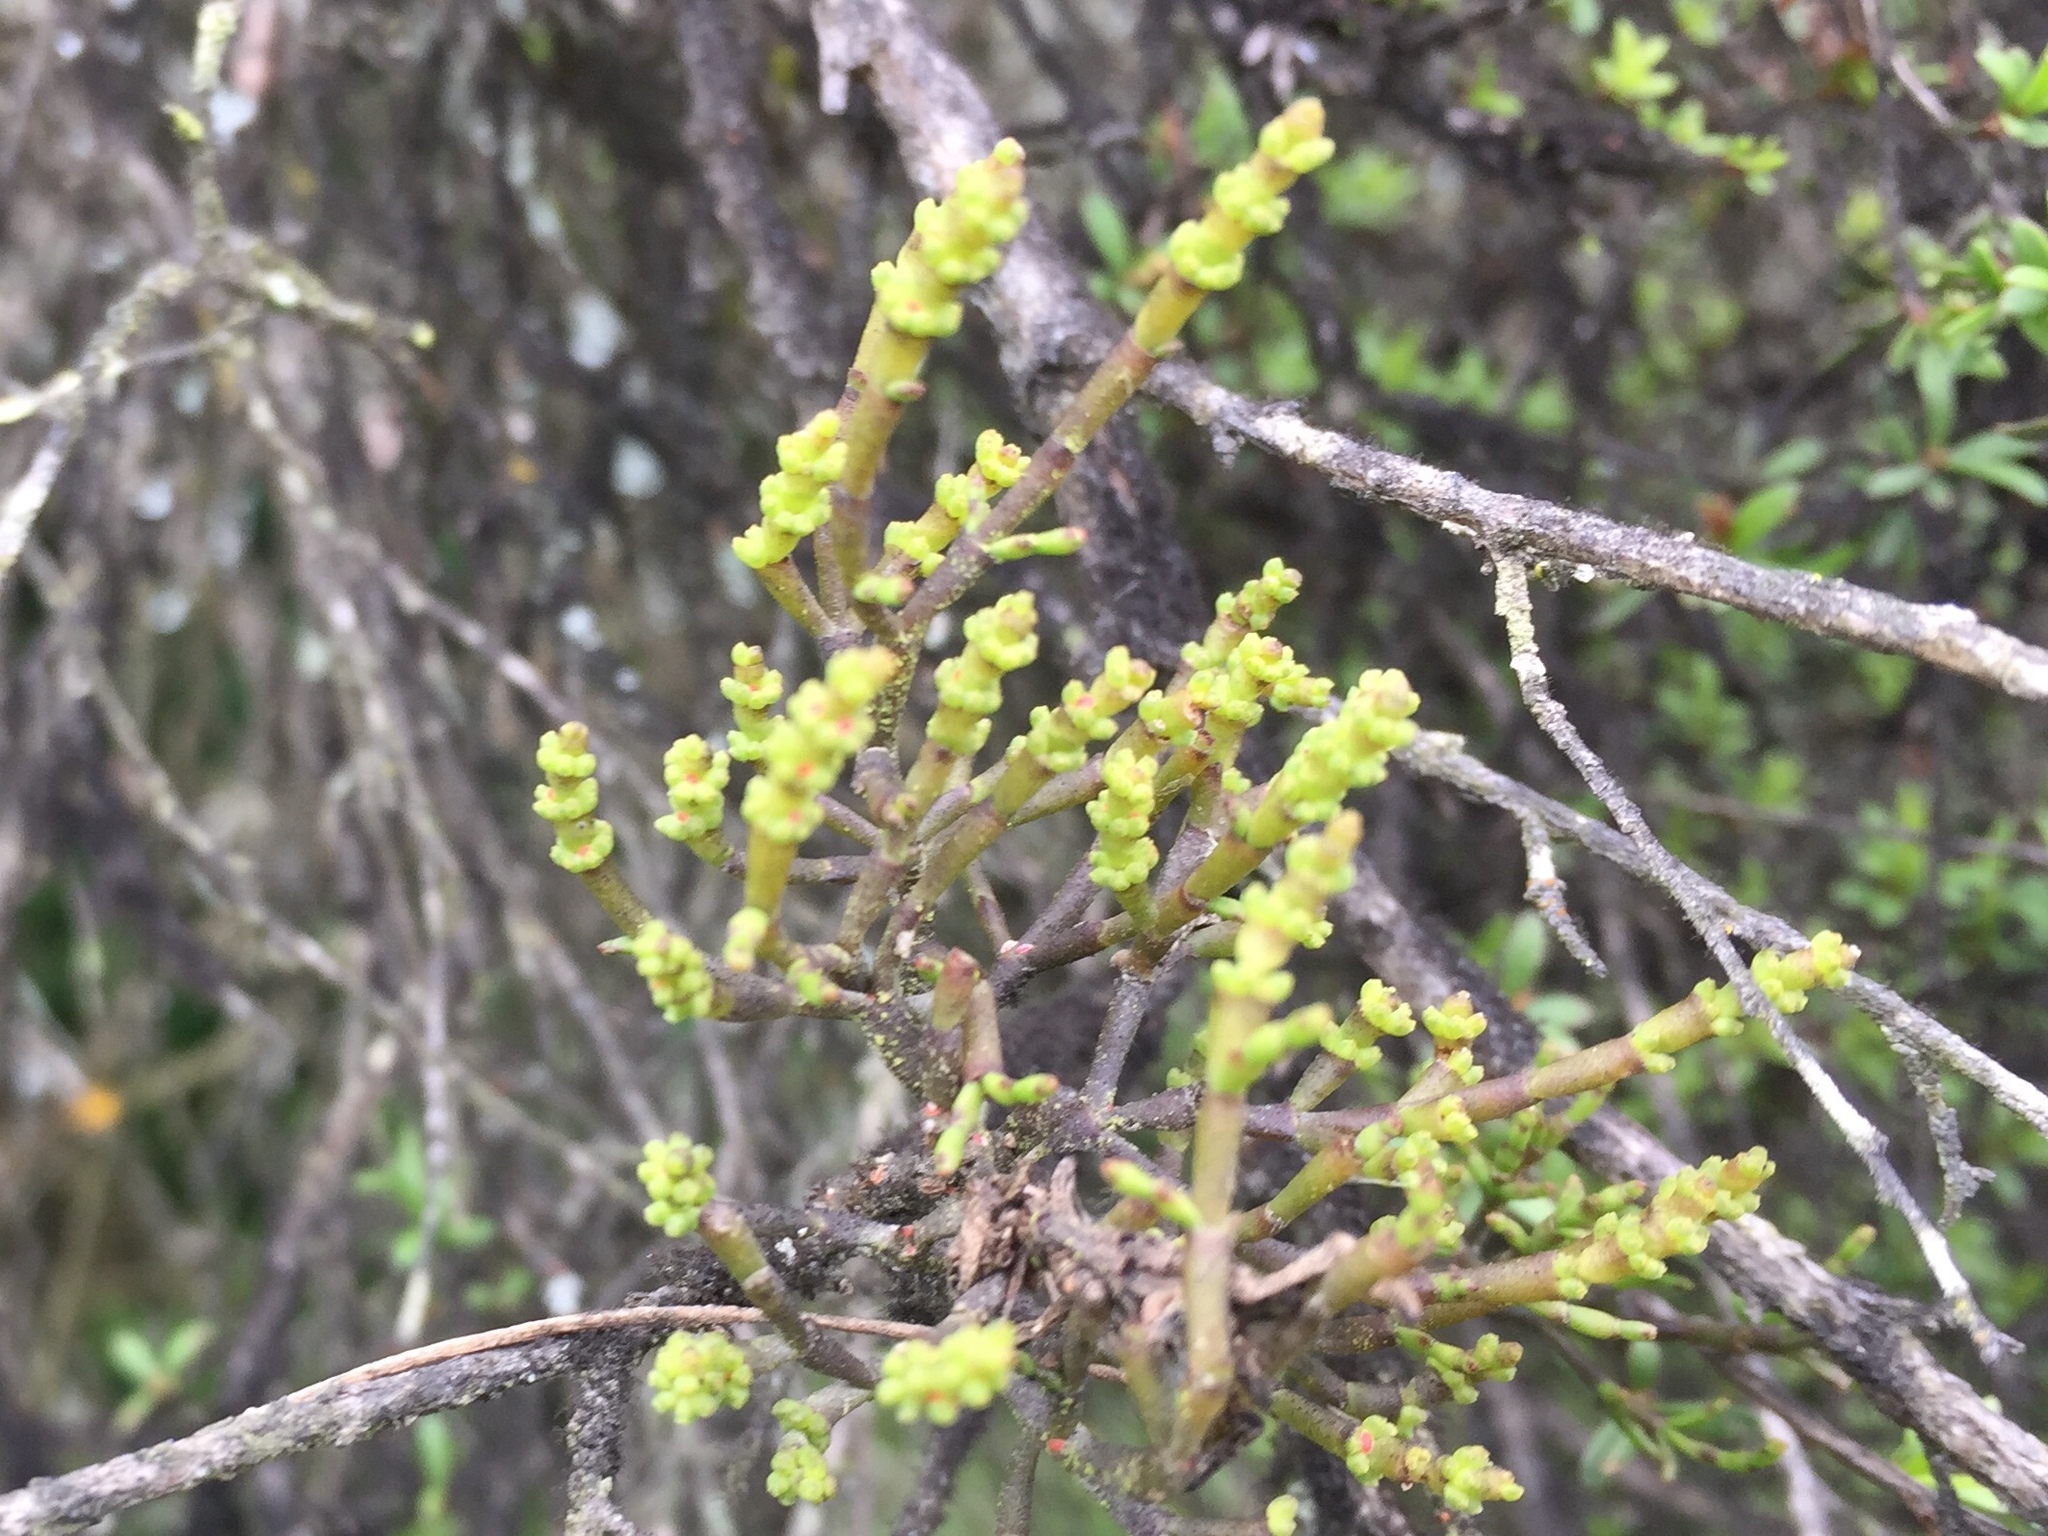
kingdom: Plantae
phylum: Tracheophyta
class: Magnoliopsida
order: Santalales
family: Viscaceae
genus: Korthalsella
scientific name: Korthalsella salicornioides
